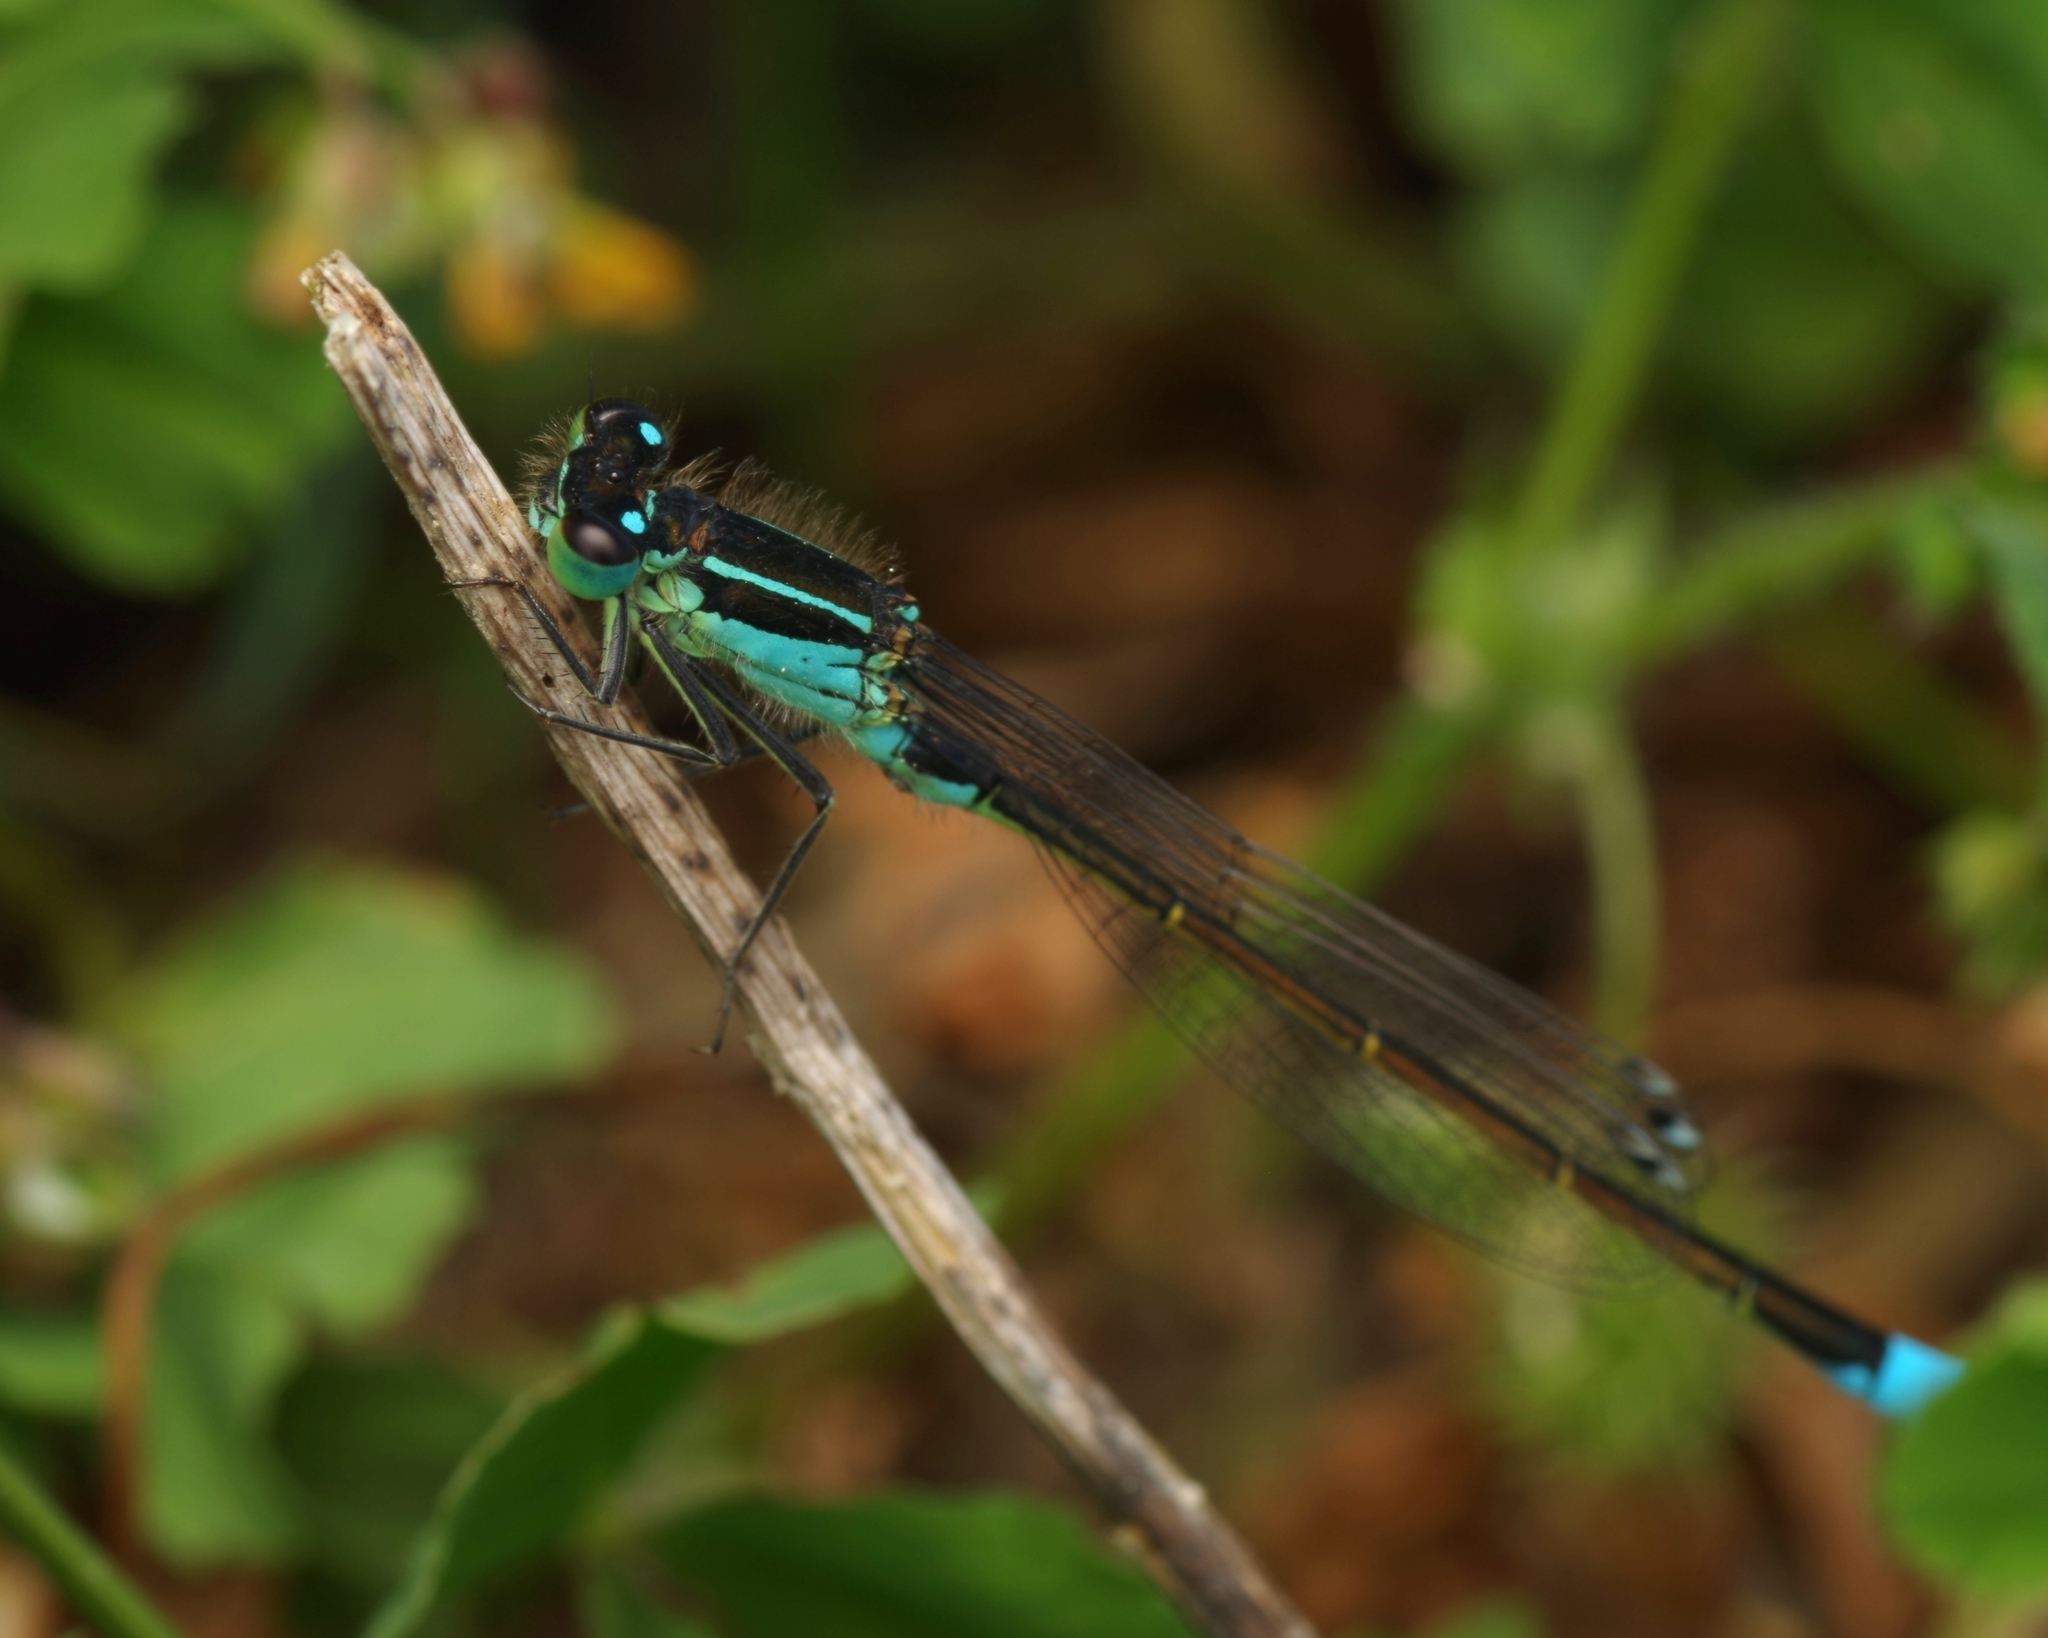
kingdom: Animalia
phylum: Arthropoda
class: Insecta
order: Odonata
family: Coenagrionidae
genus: Ischnura
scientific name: Ischnura elegans
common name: Blue-tailed damselfly
